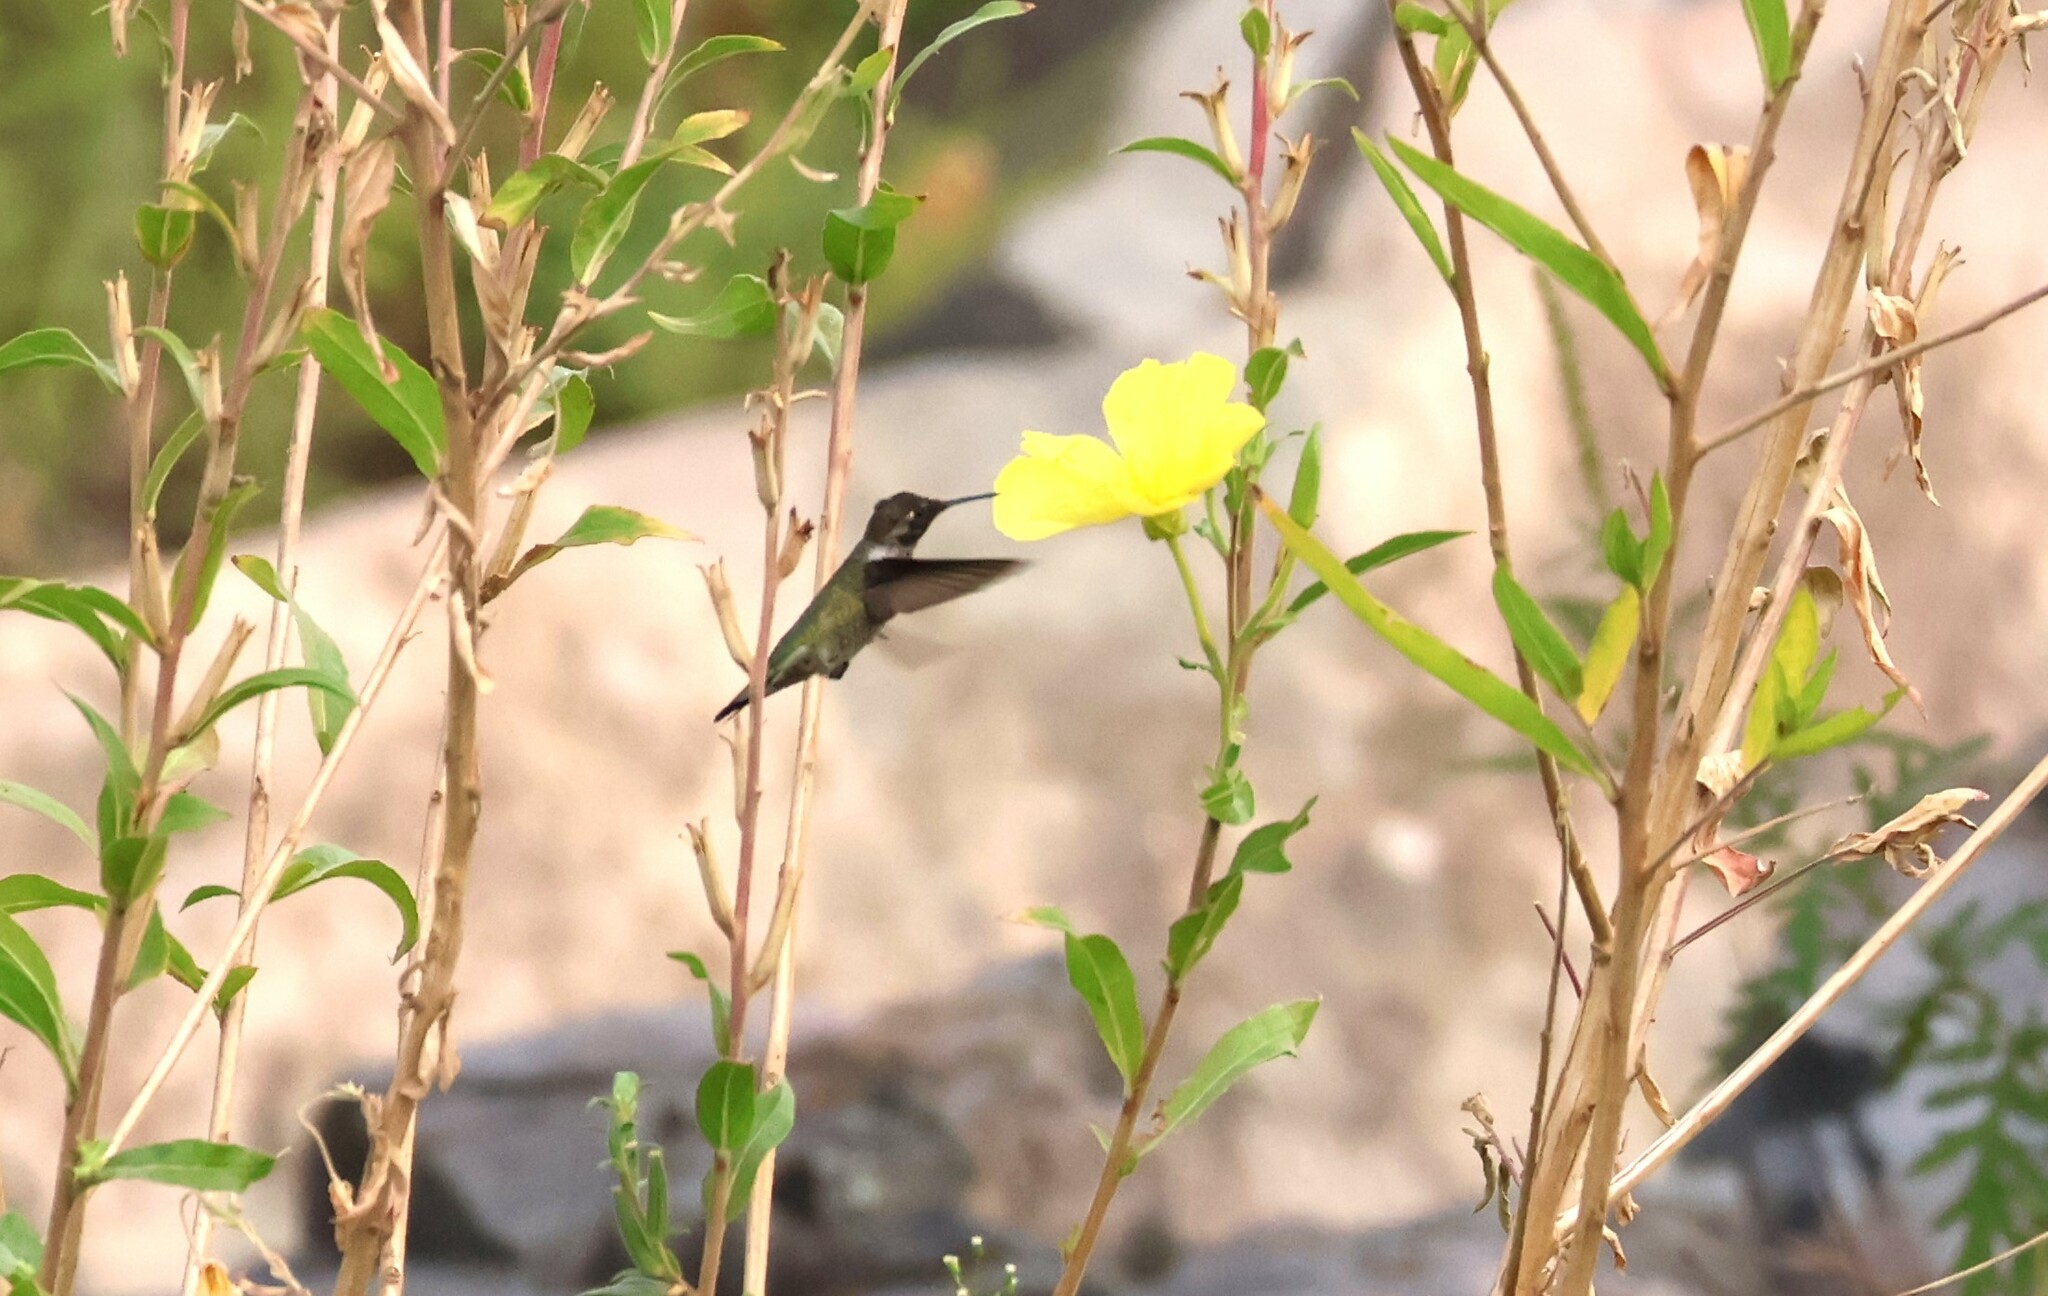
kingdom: Animalia
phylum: Chordata
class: Aves
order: Apodiformes
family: Trochilidae
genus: Calypte
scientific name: Calypte anna
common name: Anna's hummingbird
